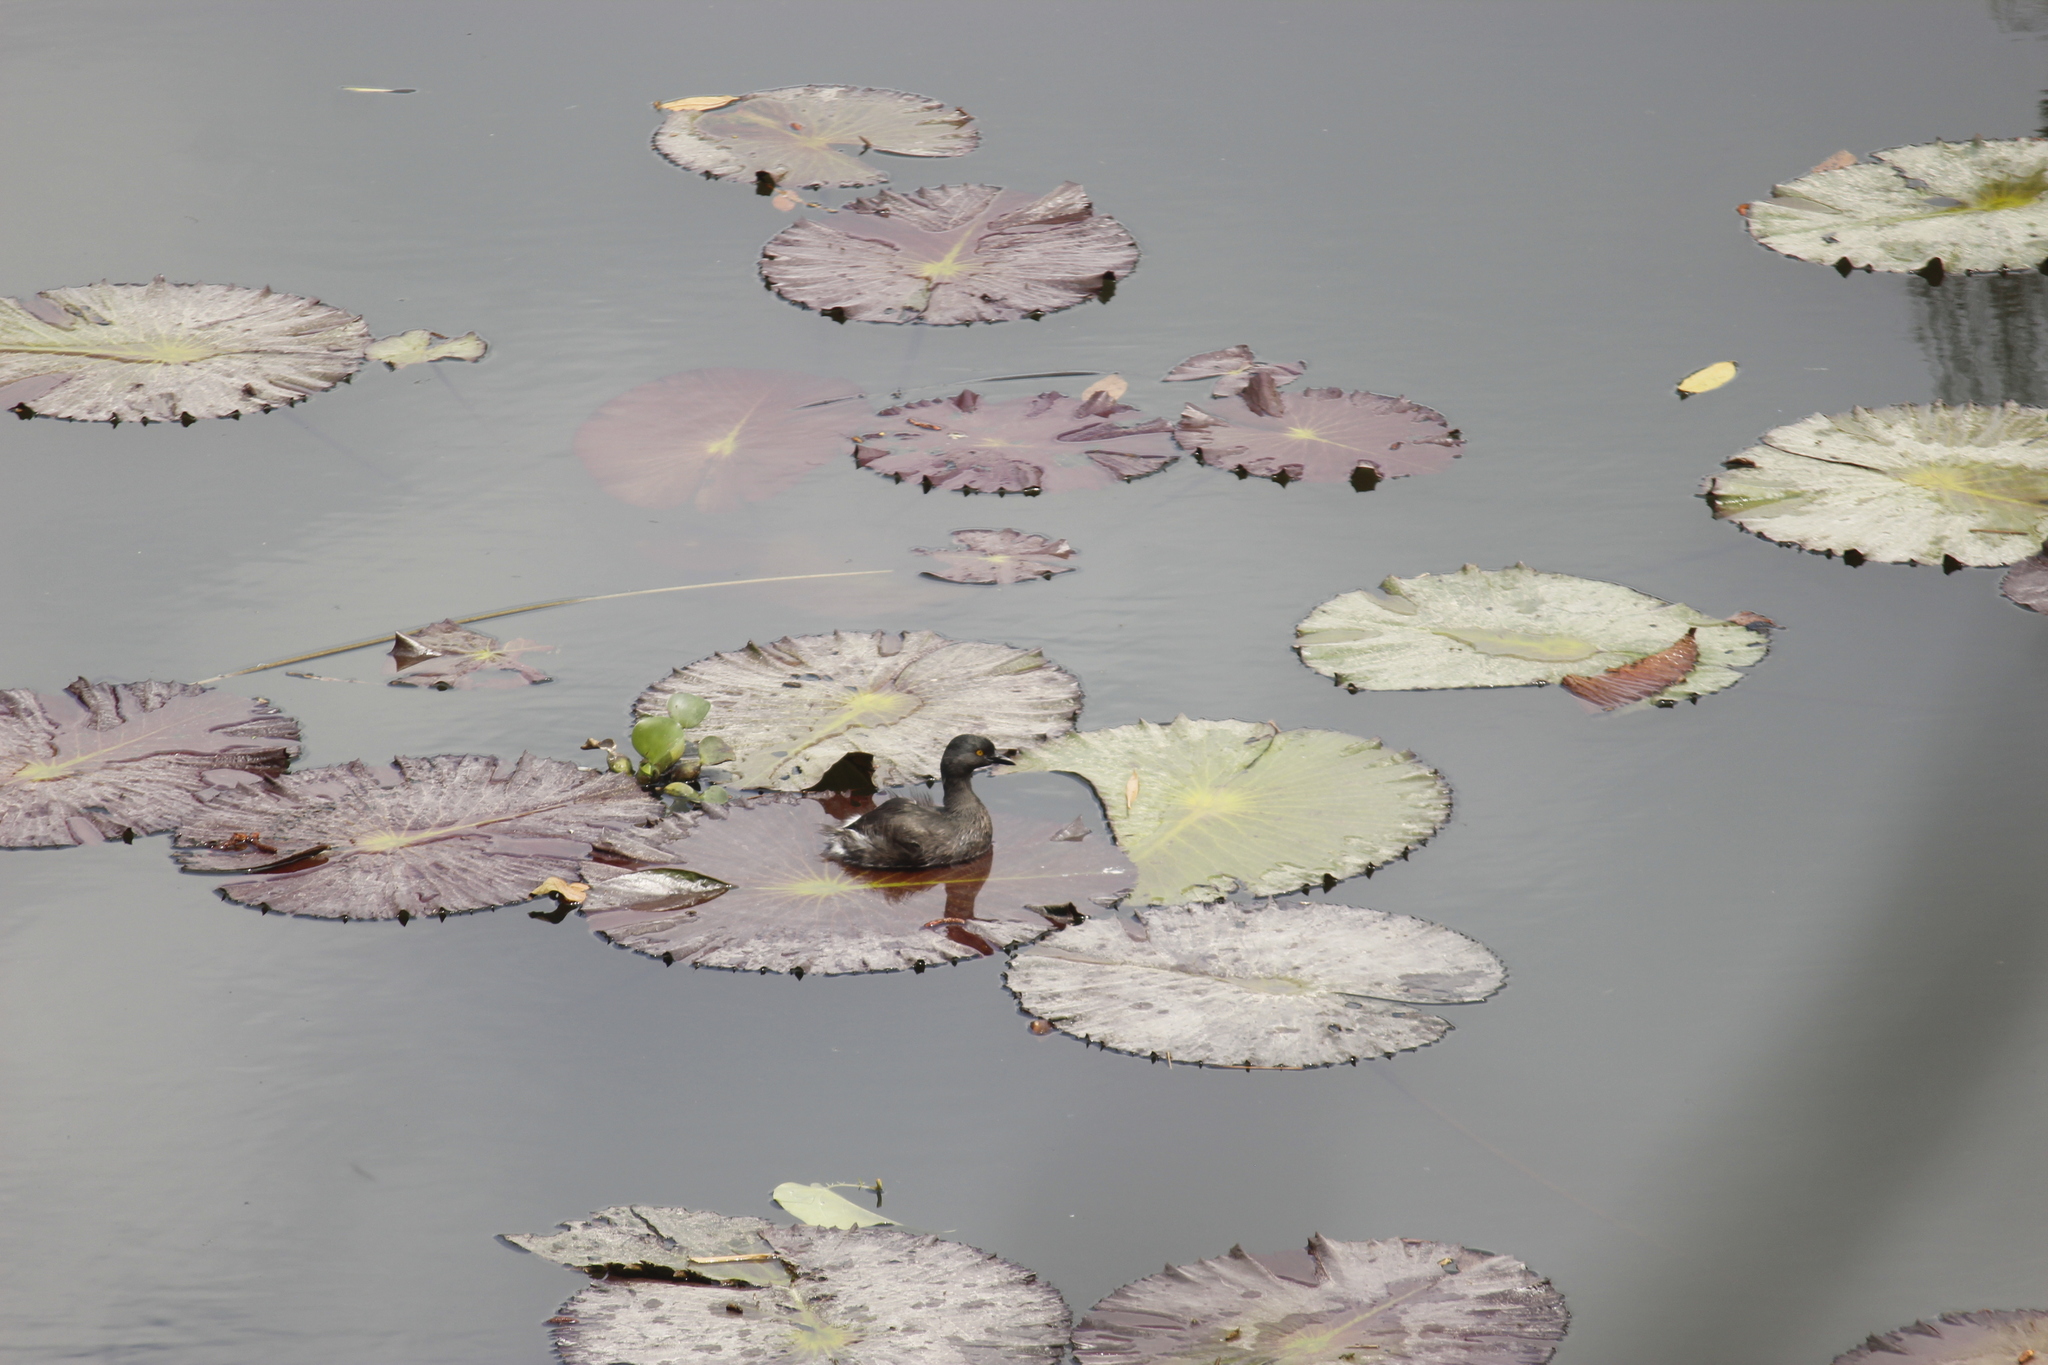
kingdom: Animalia
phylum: Chordata
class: Aves
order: Podicipediformes
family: Podicipedidae
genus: Tachybaptus
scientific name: Tachybaptus dominicus
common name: Least grebe
